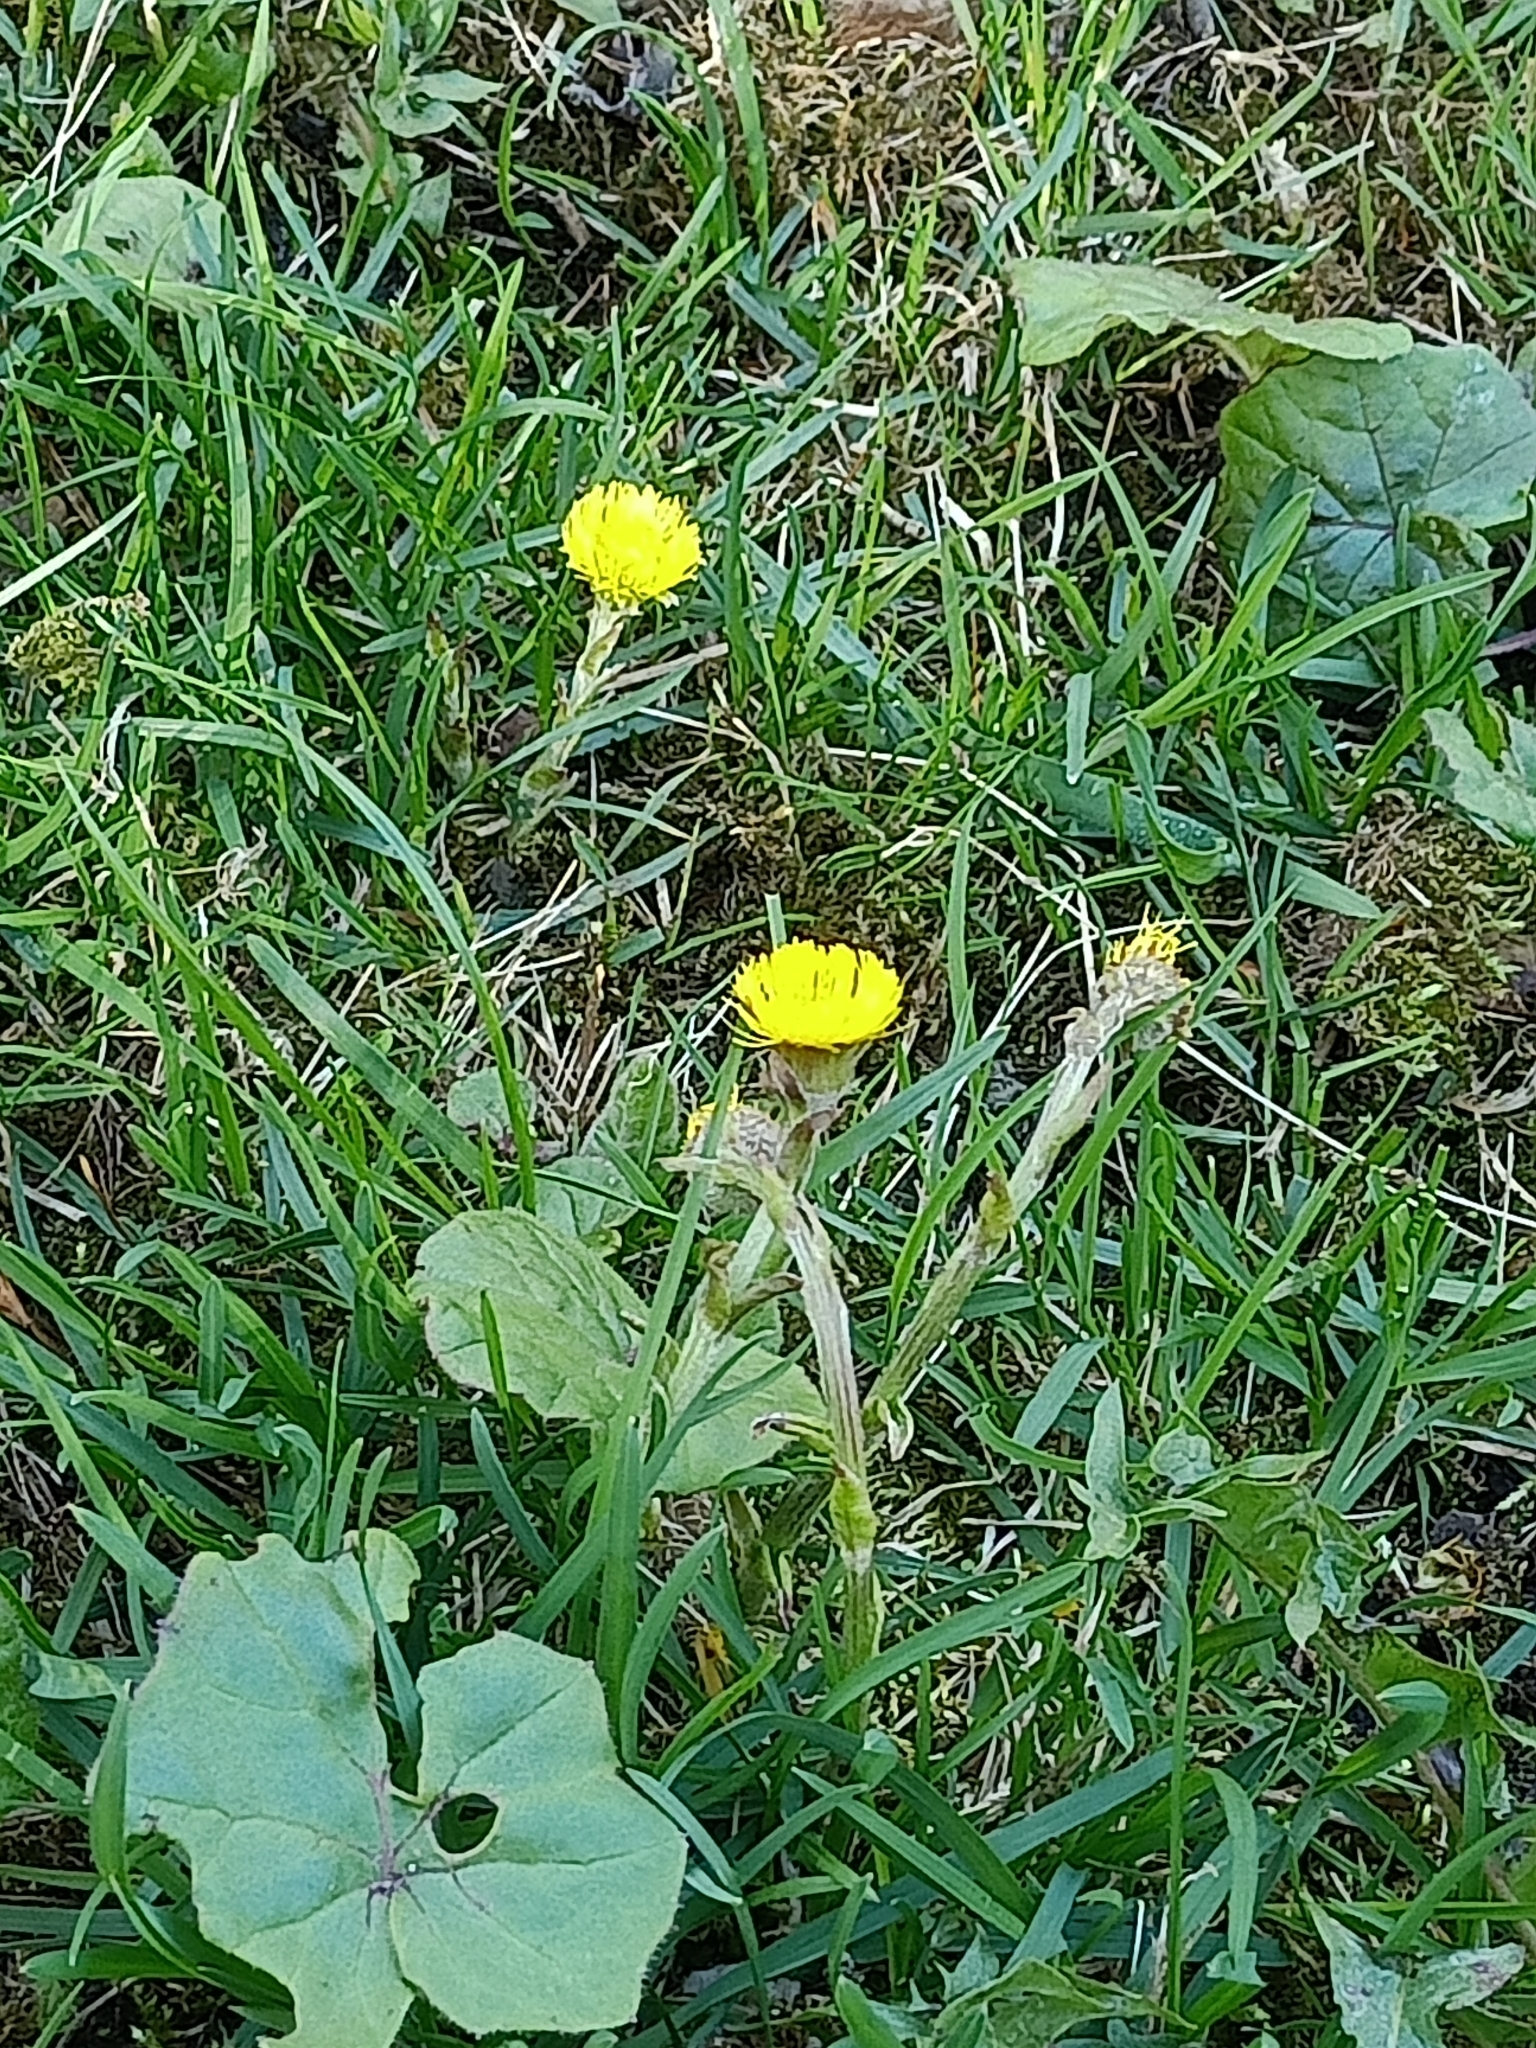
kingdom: Plantae
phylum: Tracheophyta
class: Magnoliopsida
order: Asterales
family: Asteraceae
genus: Tussilago
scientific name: Tussilago farfara
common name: Coltsfoot
